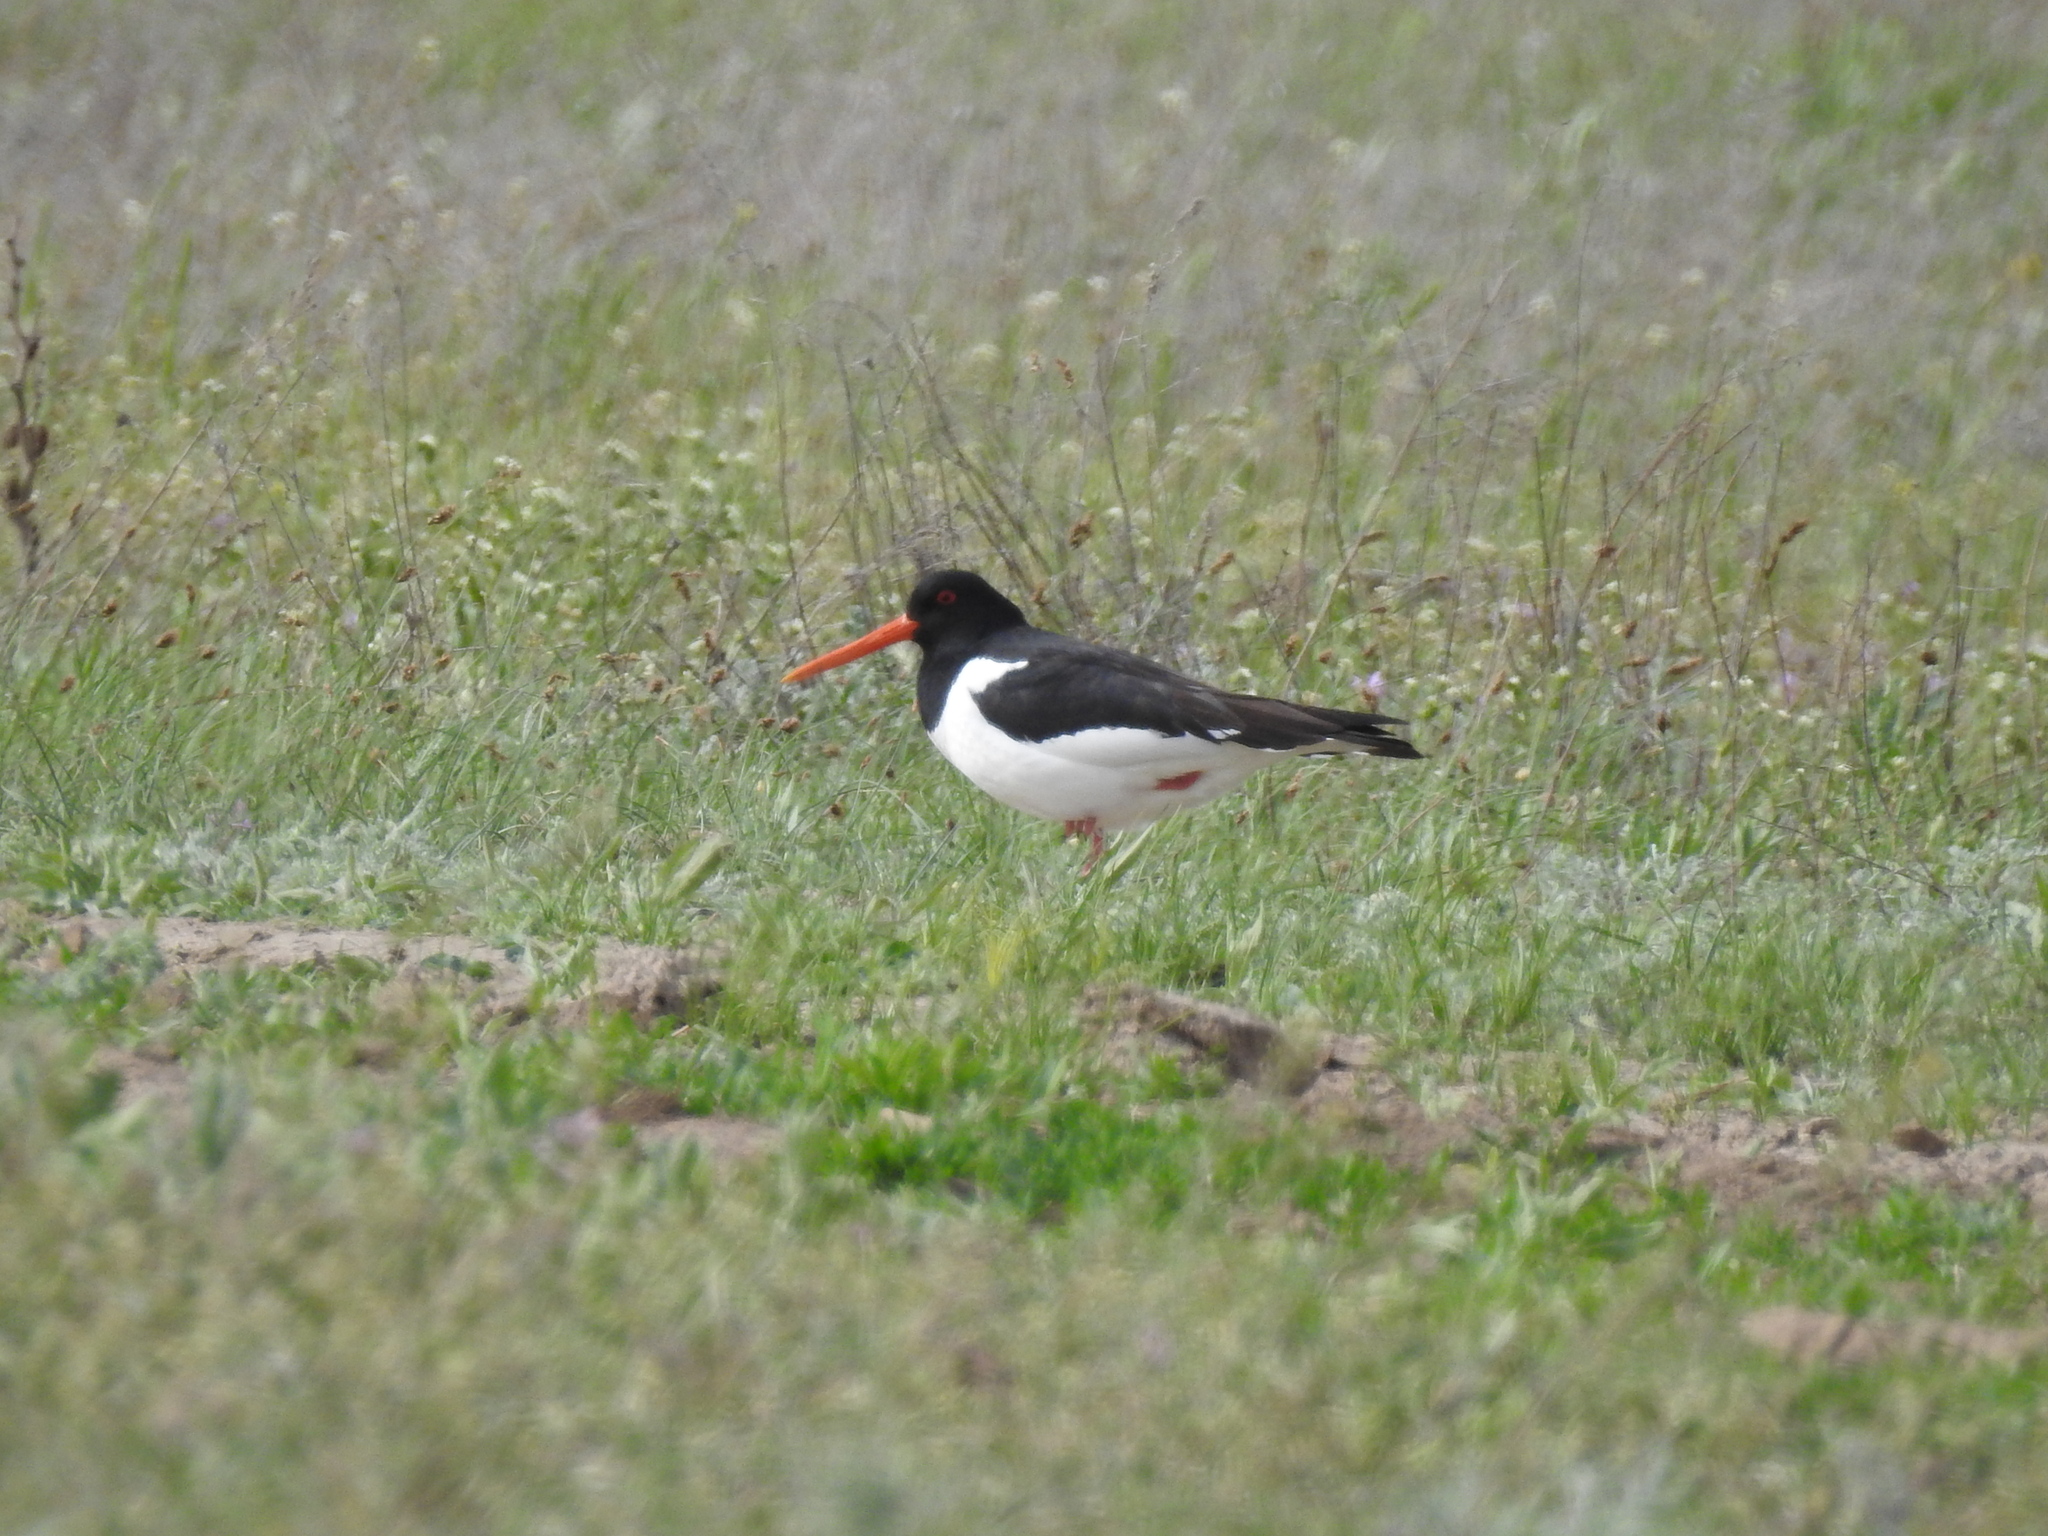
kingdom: Animalia
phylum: Chordata
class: Aves
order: Charadriiformes
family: Haematopodidae
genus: Haematopus
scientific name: Haematopus ostralegus
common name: Eurasian oystercatcher
